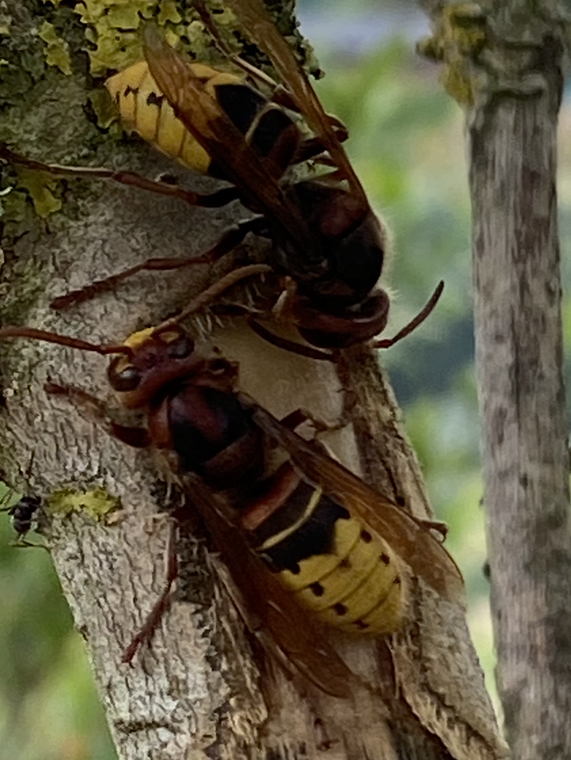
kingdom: Animalia
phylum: Arthropoda
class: Insecta
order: Hymenoptera
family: Vespidae
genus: Vespa
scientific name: Vespa crabro
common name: Hornet
